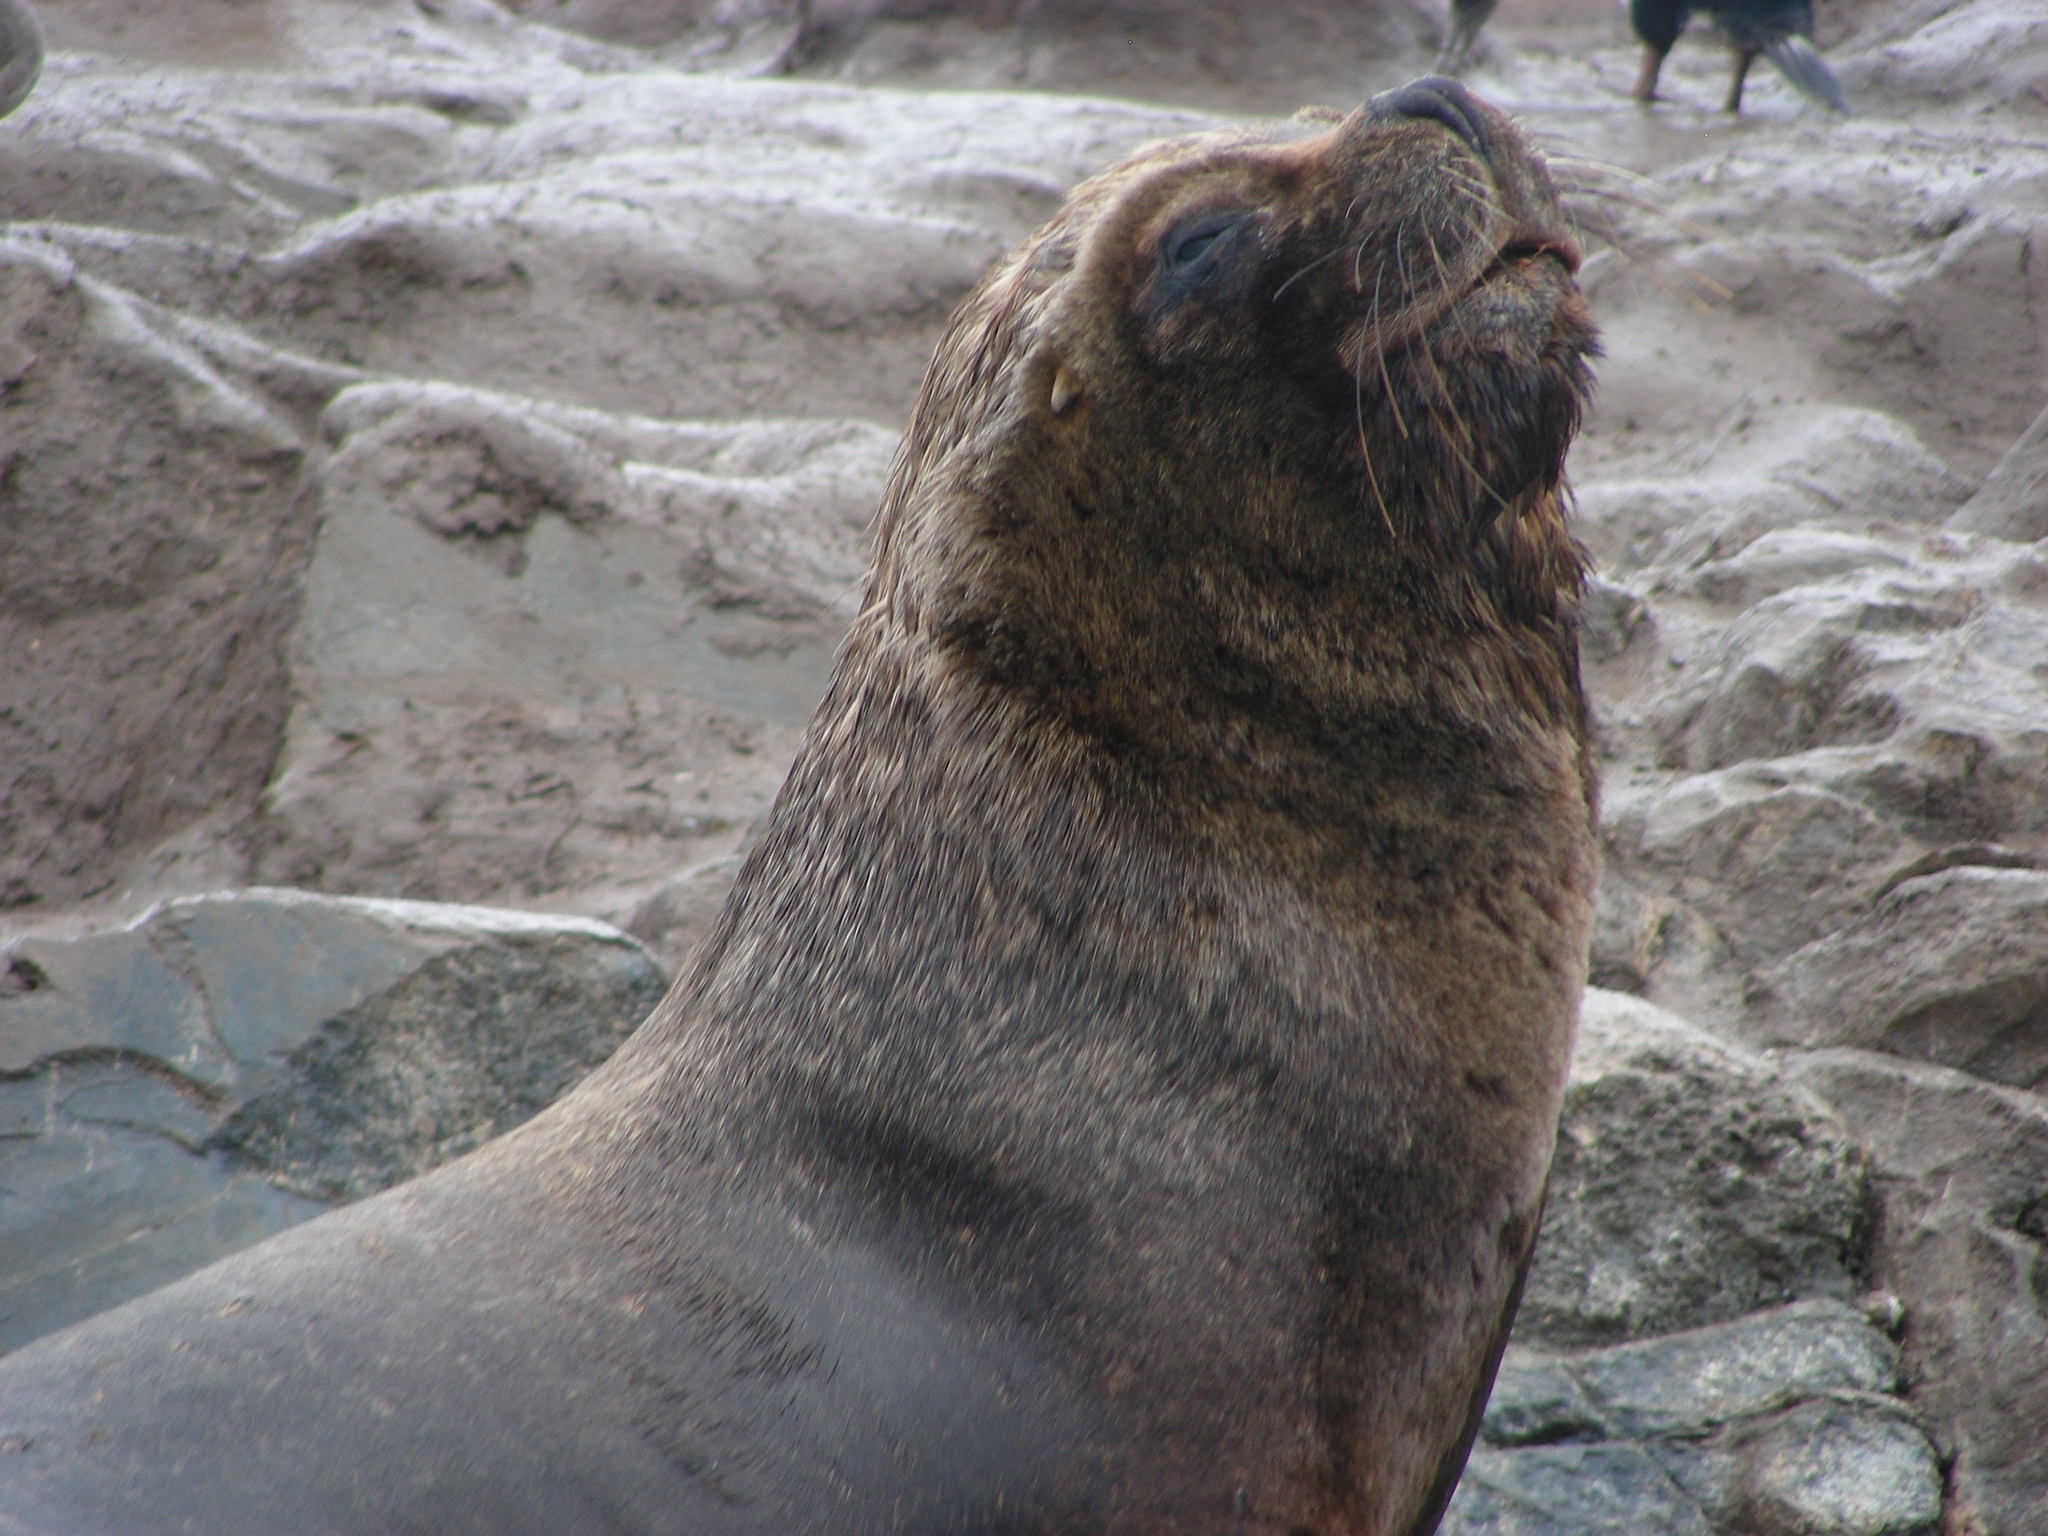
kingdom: Animalia
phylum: Chordata
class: Mammalia
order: Carnivora
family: Otariidae
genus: Otaria
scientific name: Otaria byronia
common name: South american sea lion
